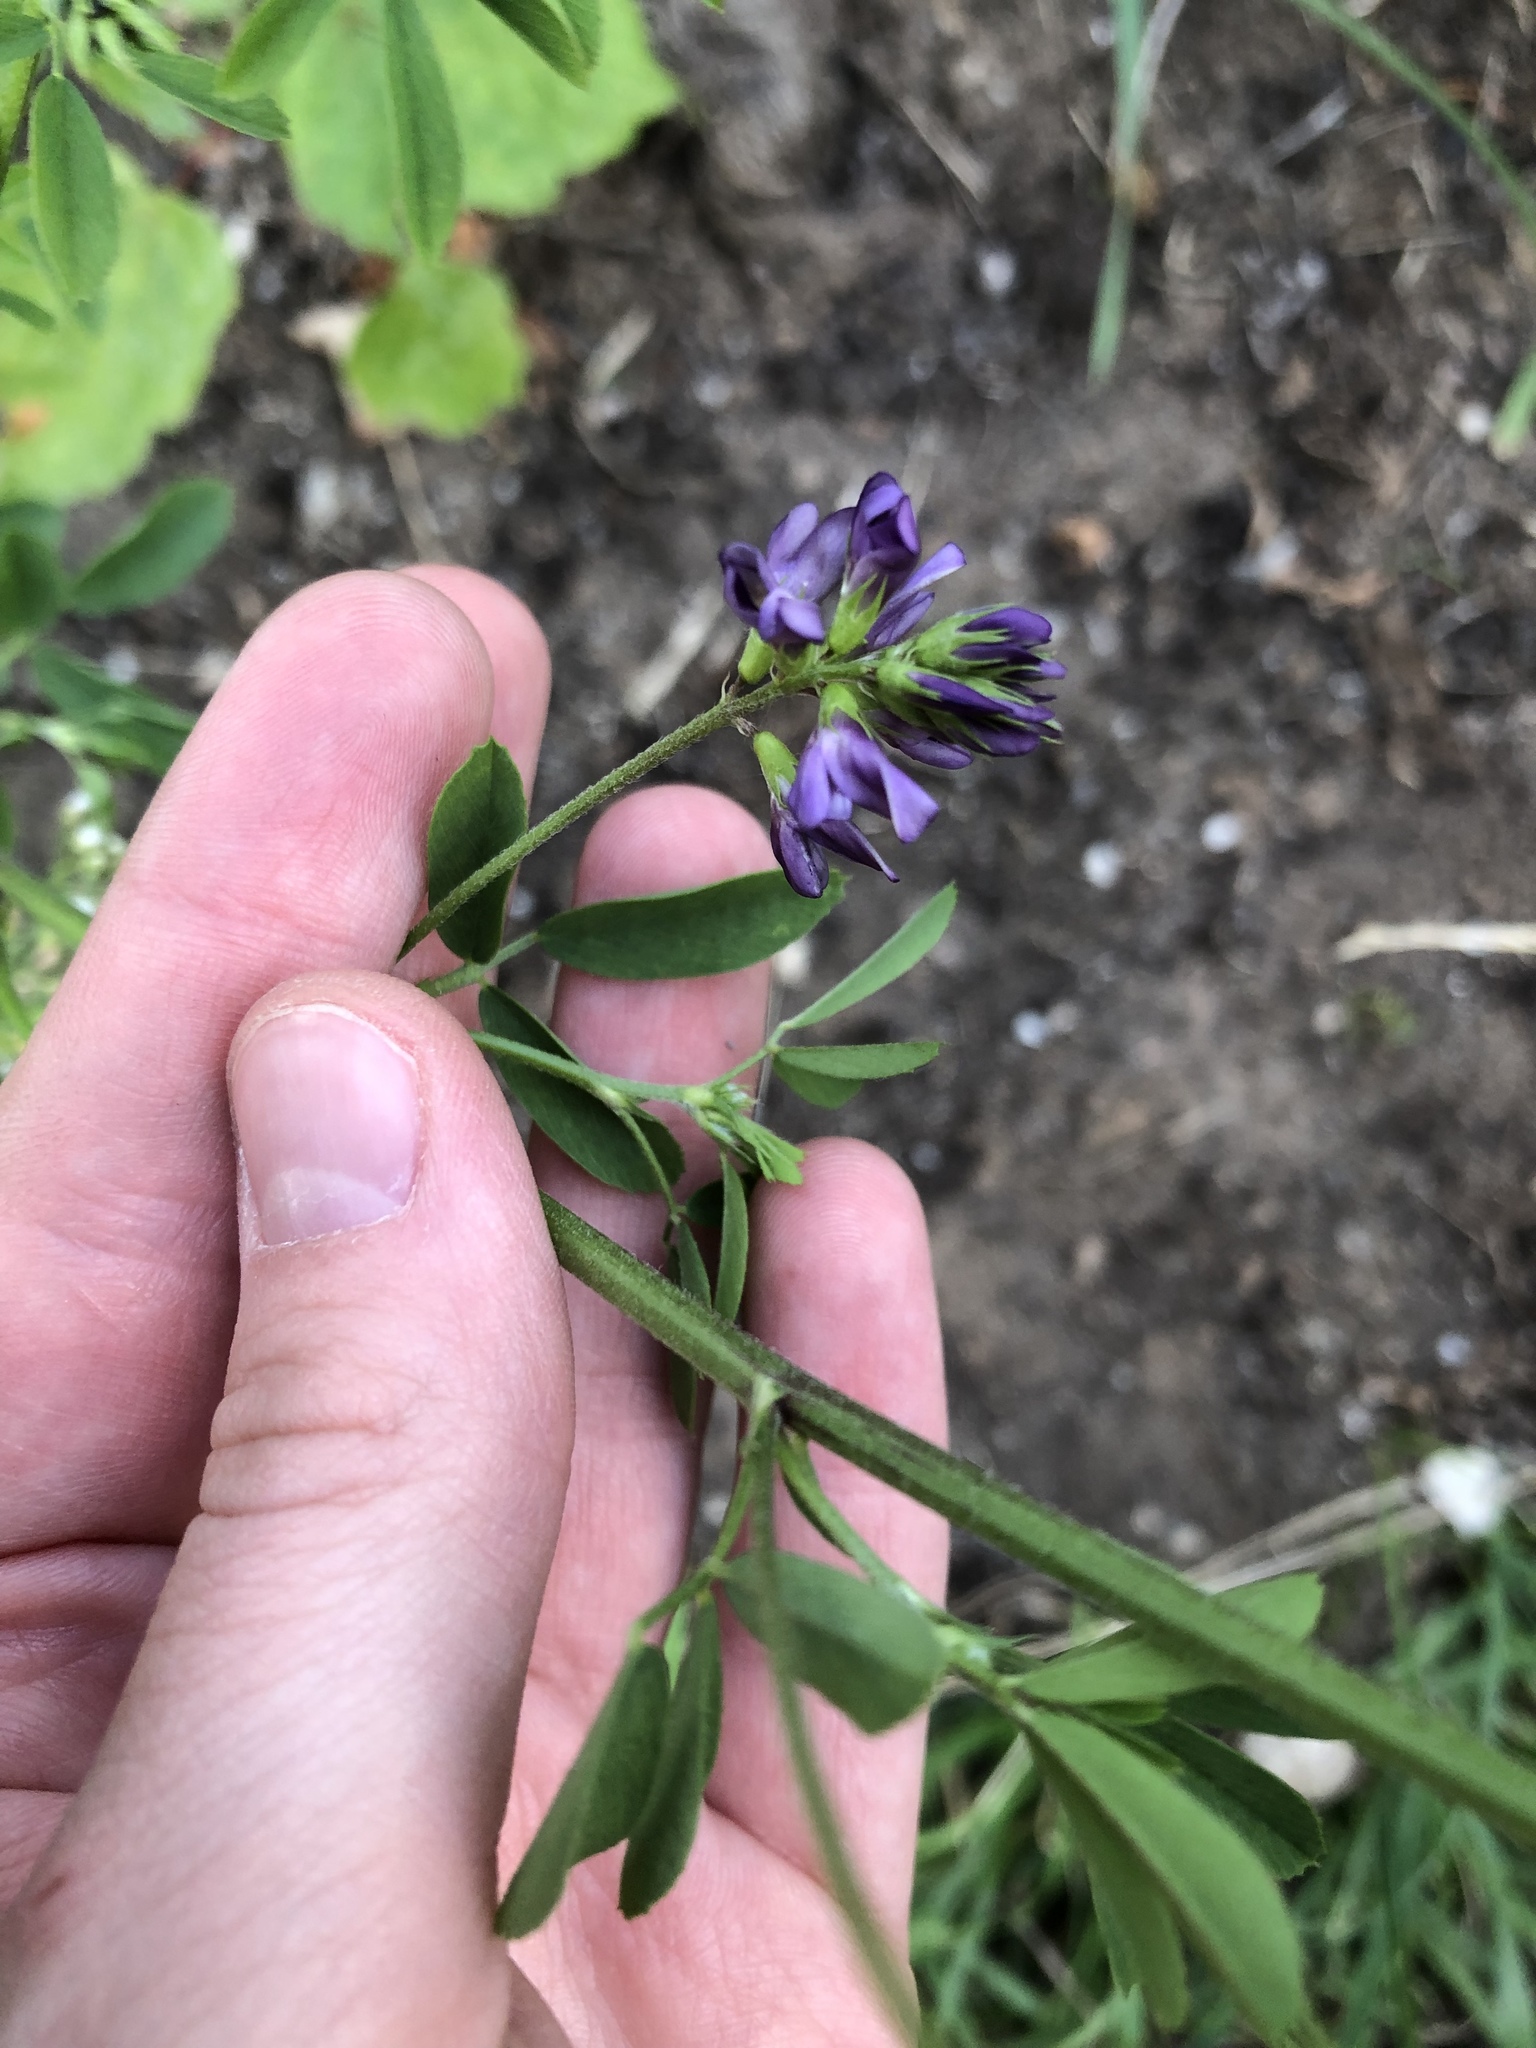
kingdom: Plantae
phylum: Tracheophyta
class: Magnoliopsida
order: Fabales
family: Fabaceae
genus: Medicago
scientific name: Medicago sativa
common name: Alfalfa
